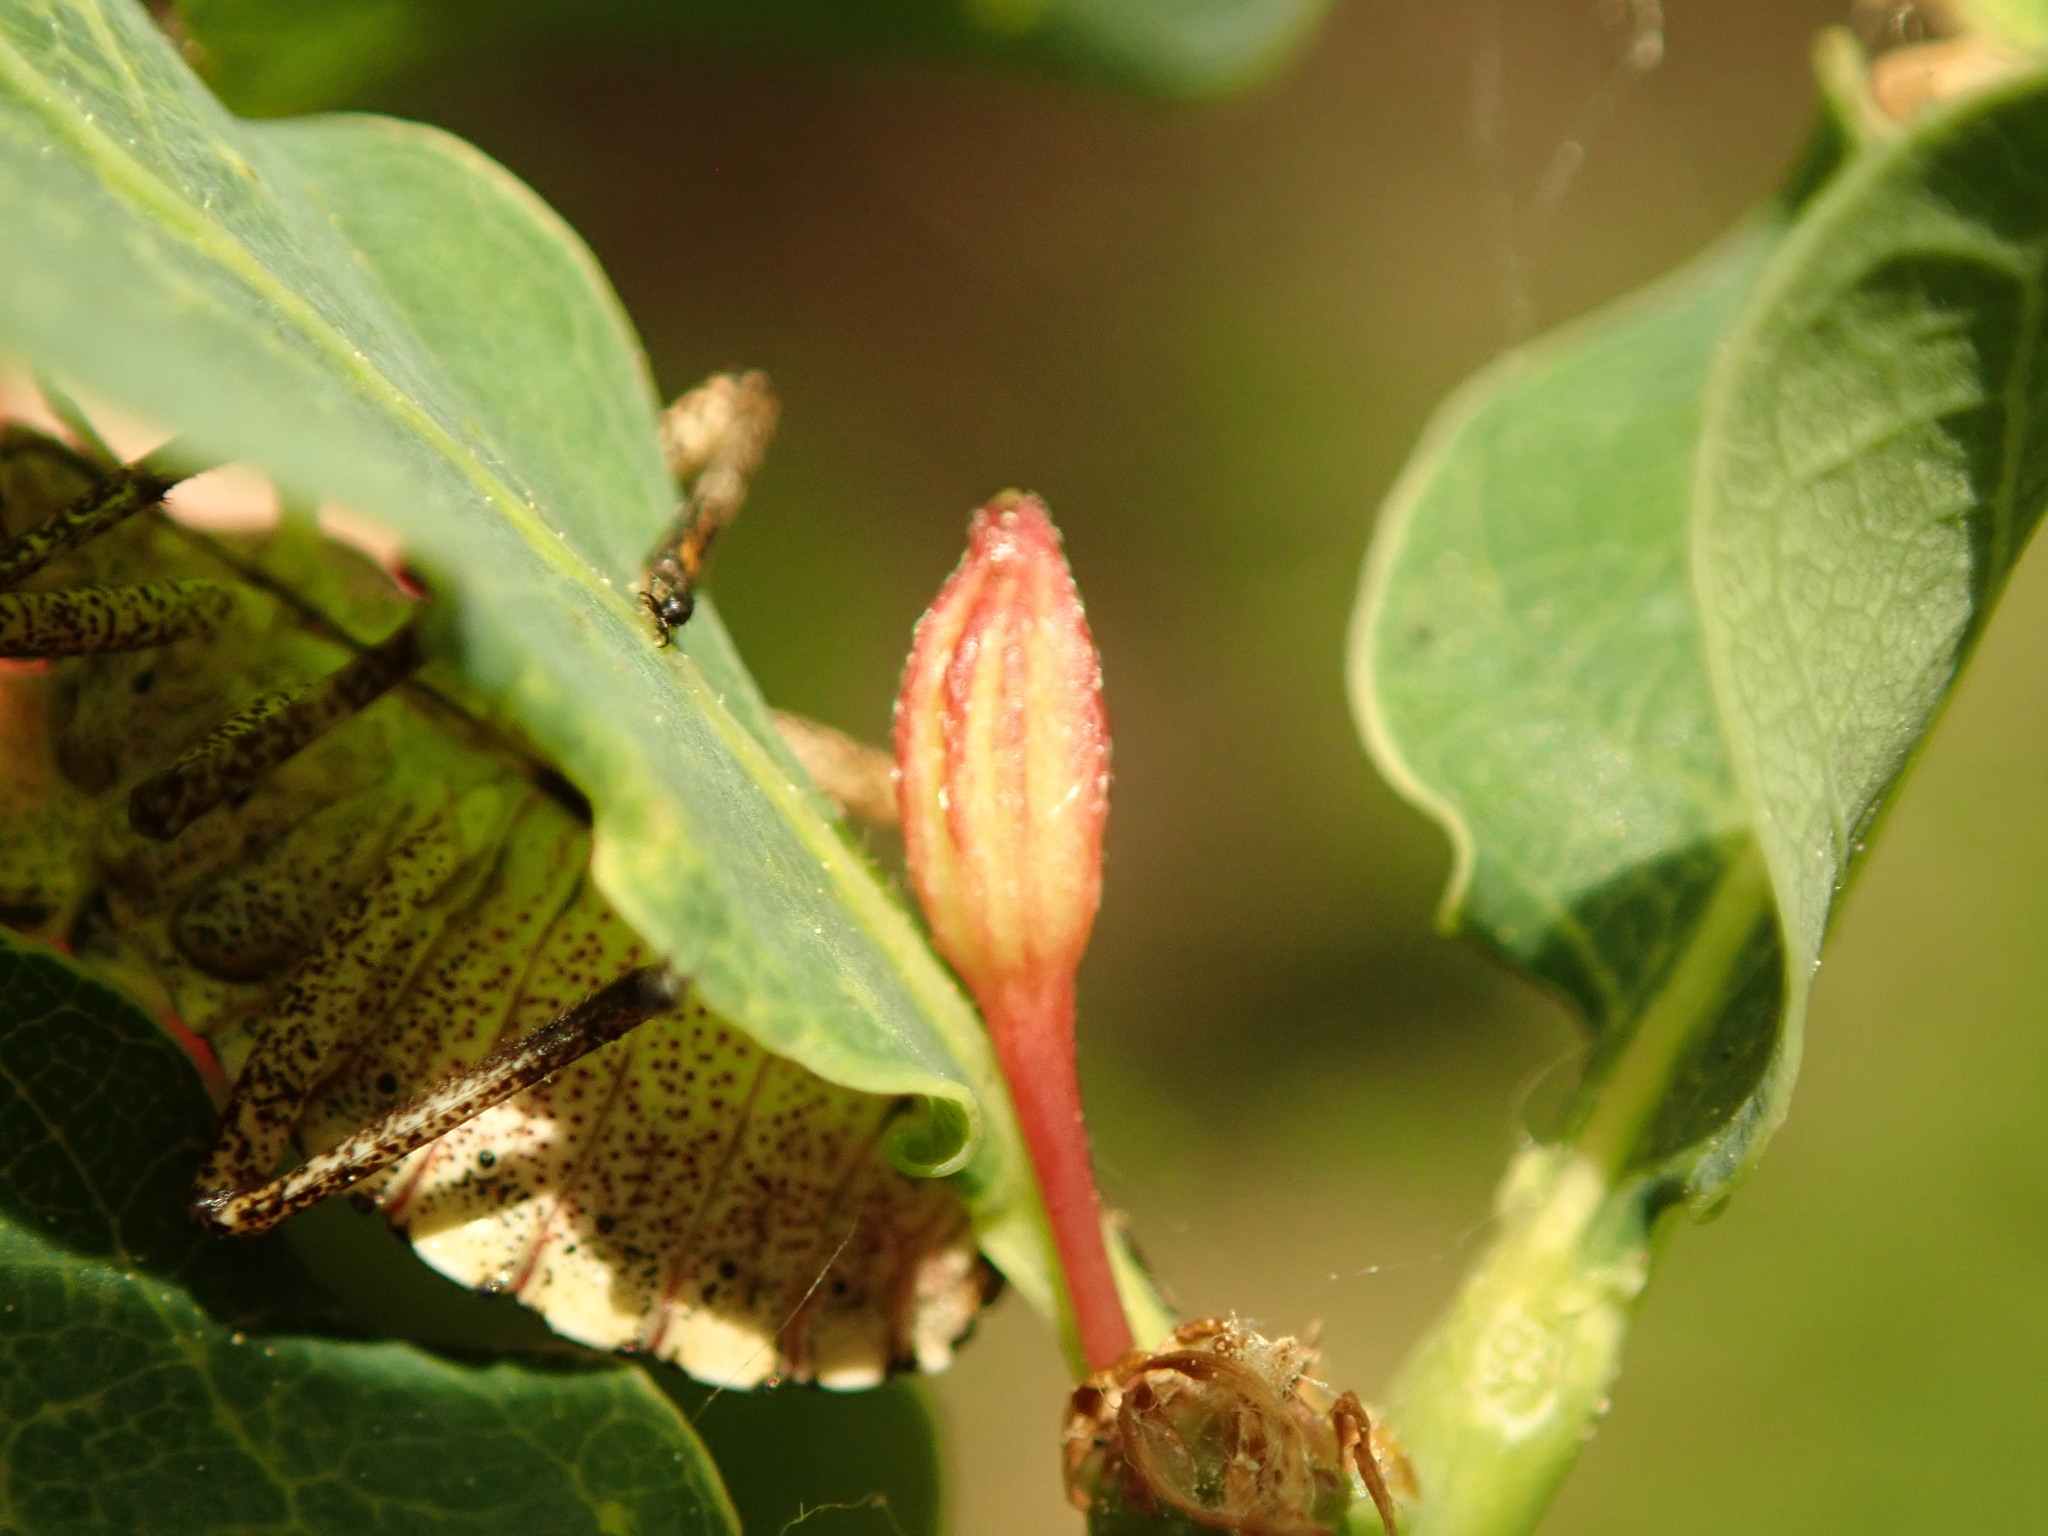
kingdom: Animalia
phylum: Arthropoda
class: Insecta
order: Hymenoptera
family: Cynipidae
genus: Andricus
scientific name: Andricus callidoma
